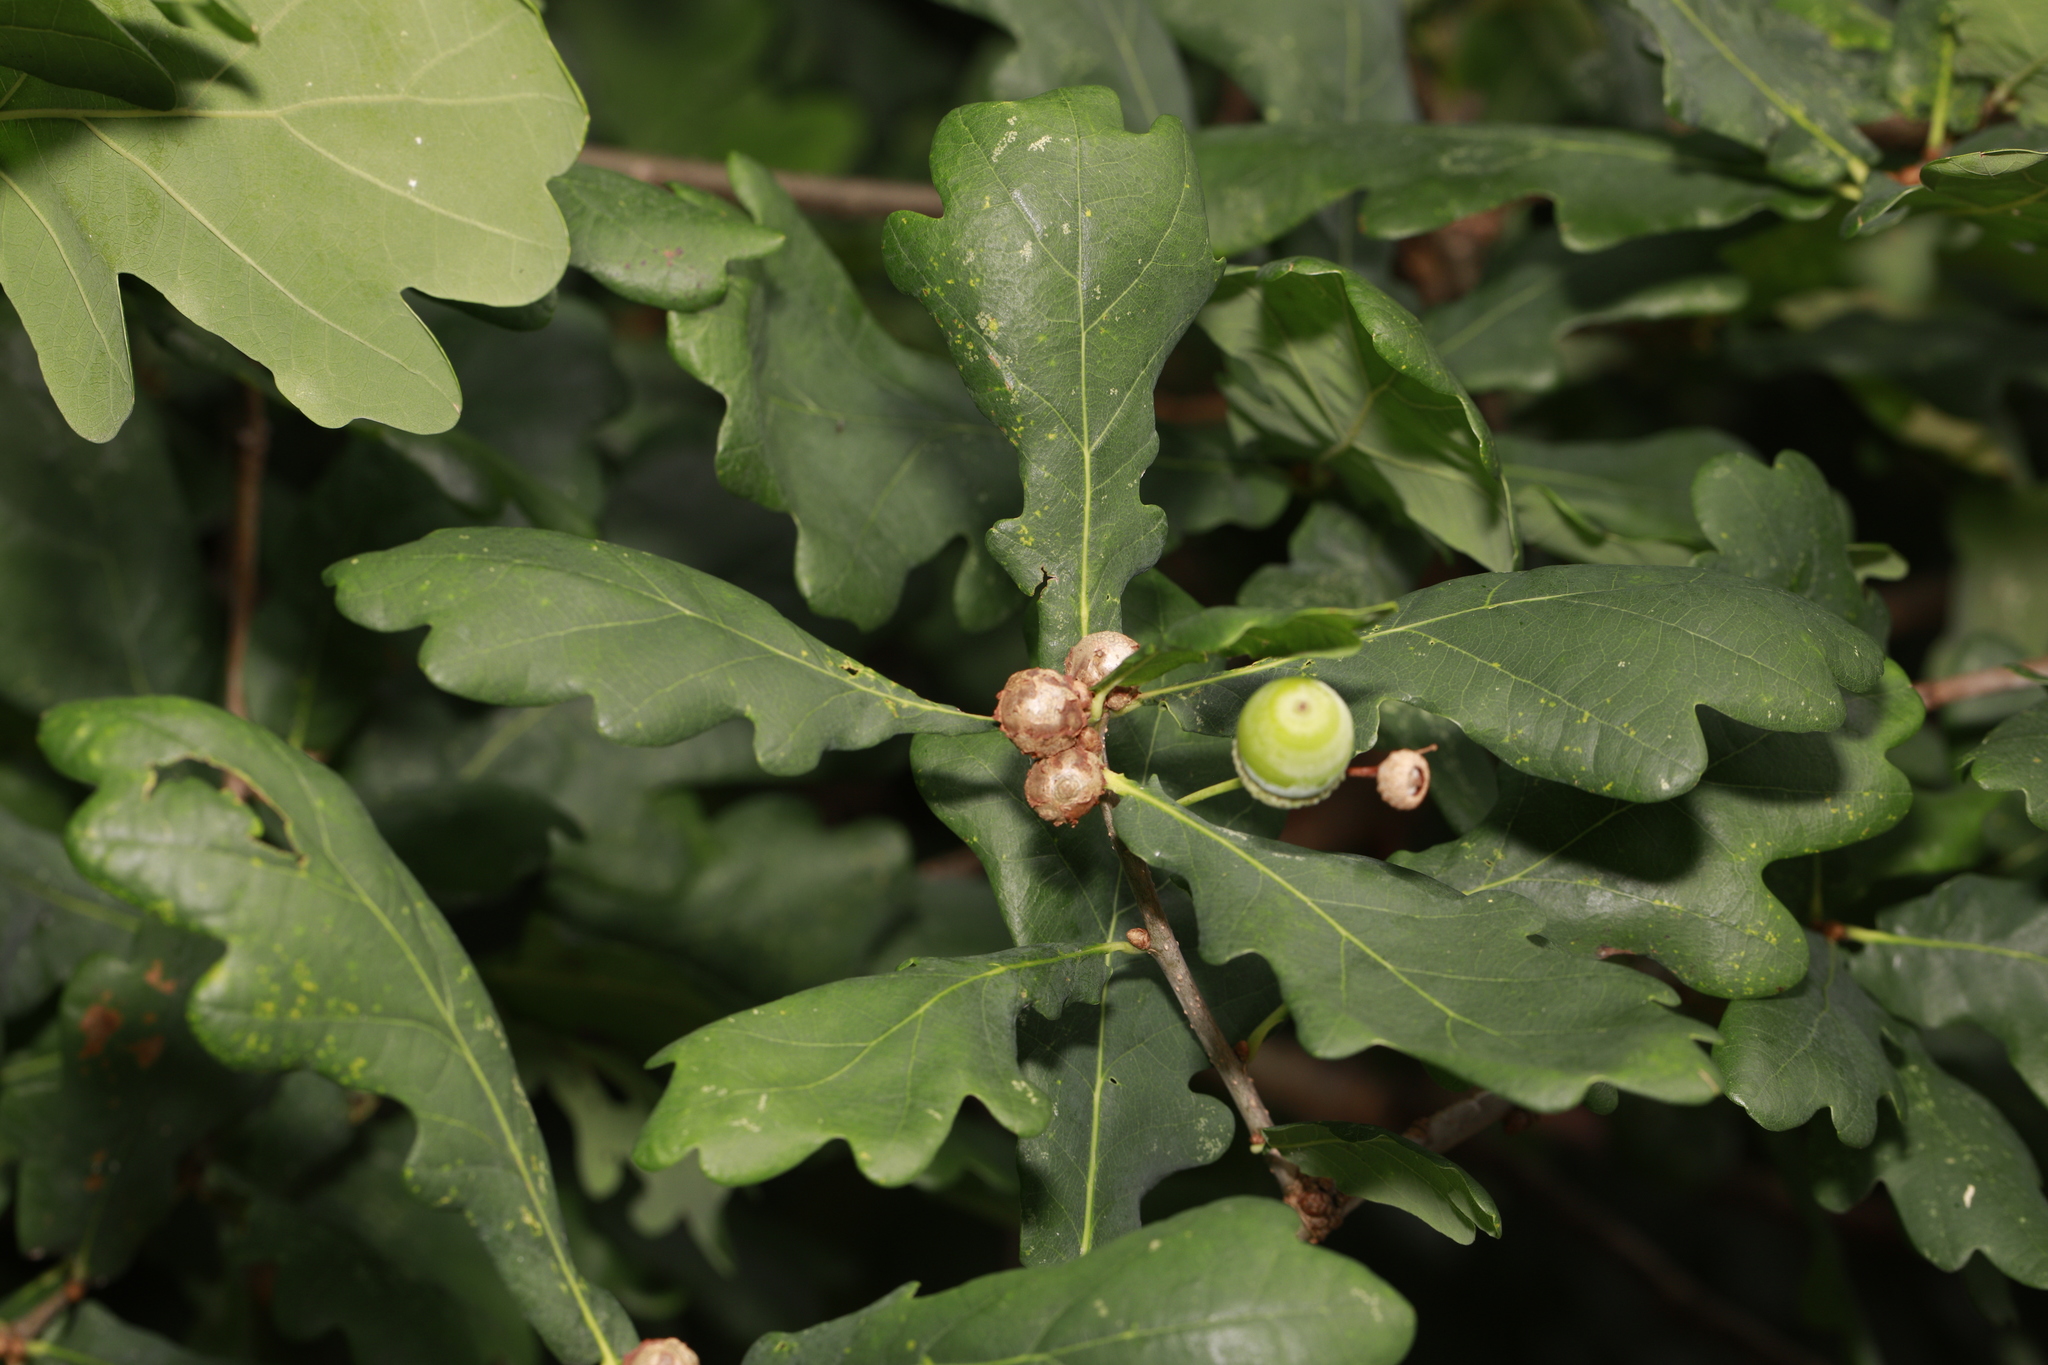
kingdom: Animalia
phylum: Arthropoda
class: Insecta
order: Hymenoptera
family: Cynipidae
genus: Andricus
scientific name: Andricus lignicolus
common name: Cola-nut gall
